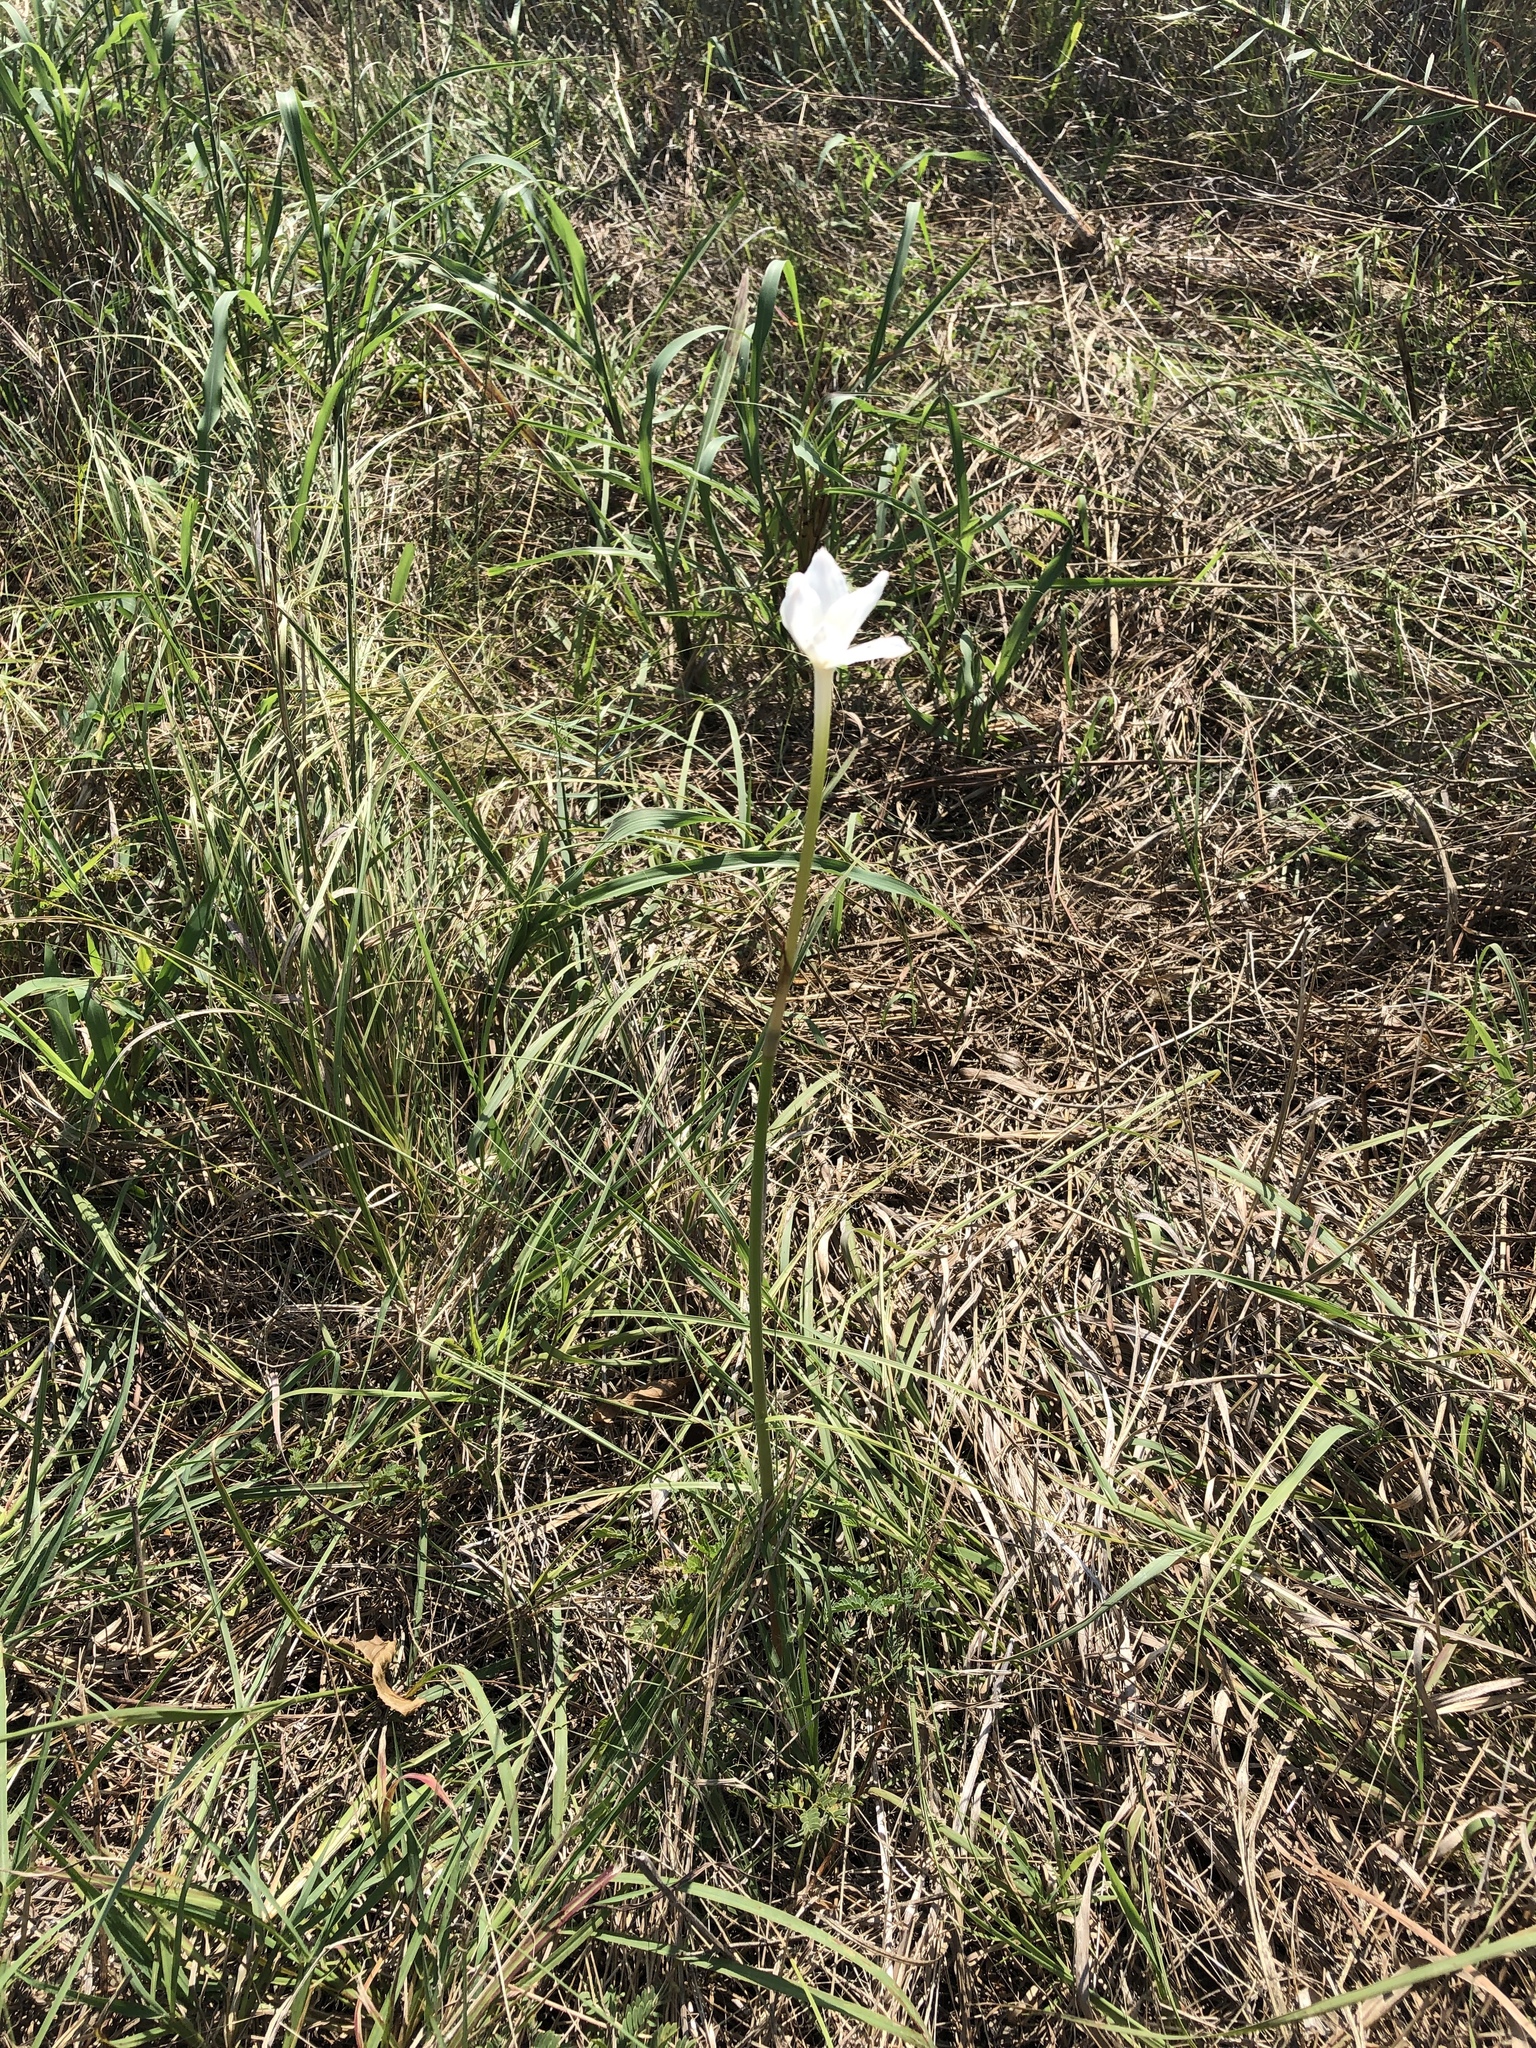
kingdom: Plantae
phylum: Tracheophyta
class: Liliopsida
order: Asparagales
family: Amaryllidaceae
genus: Zephyranthes
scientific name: Zephyranthes chlorosolen
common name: Evening rain-lily
